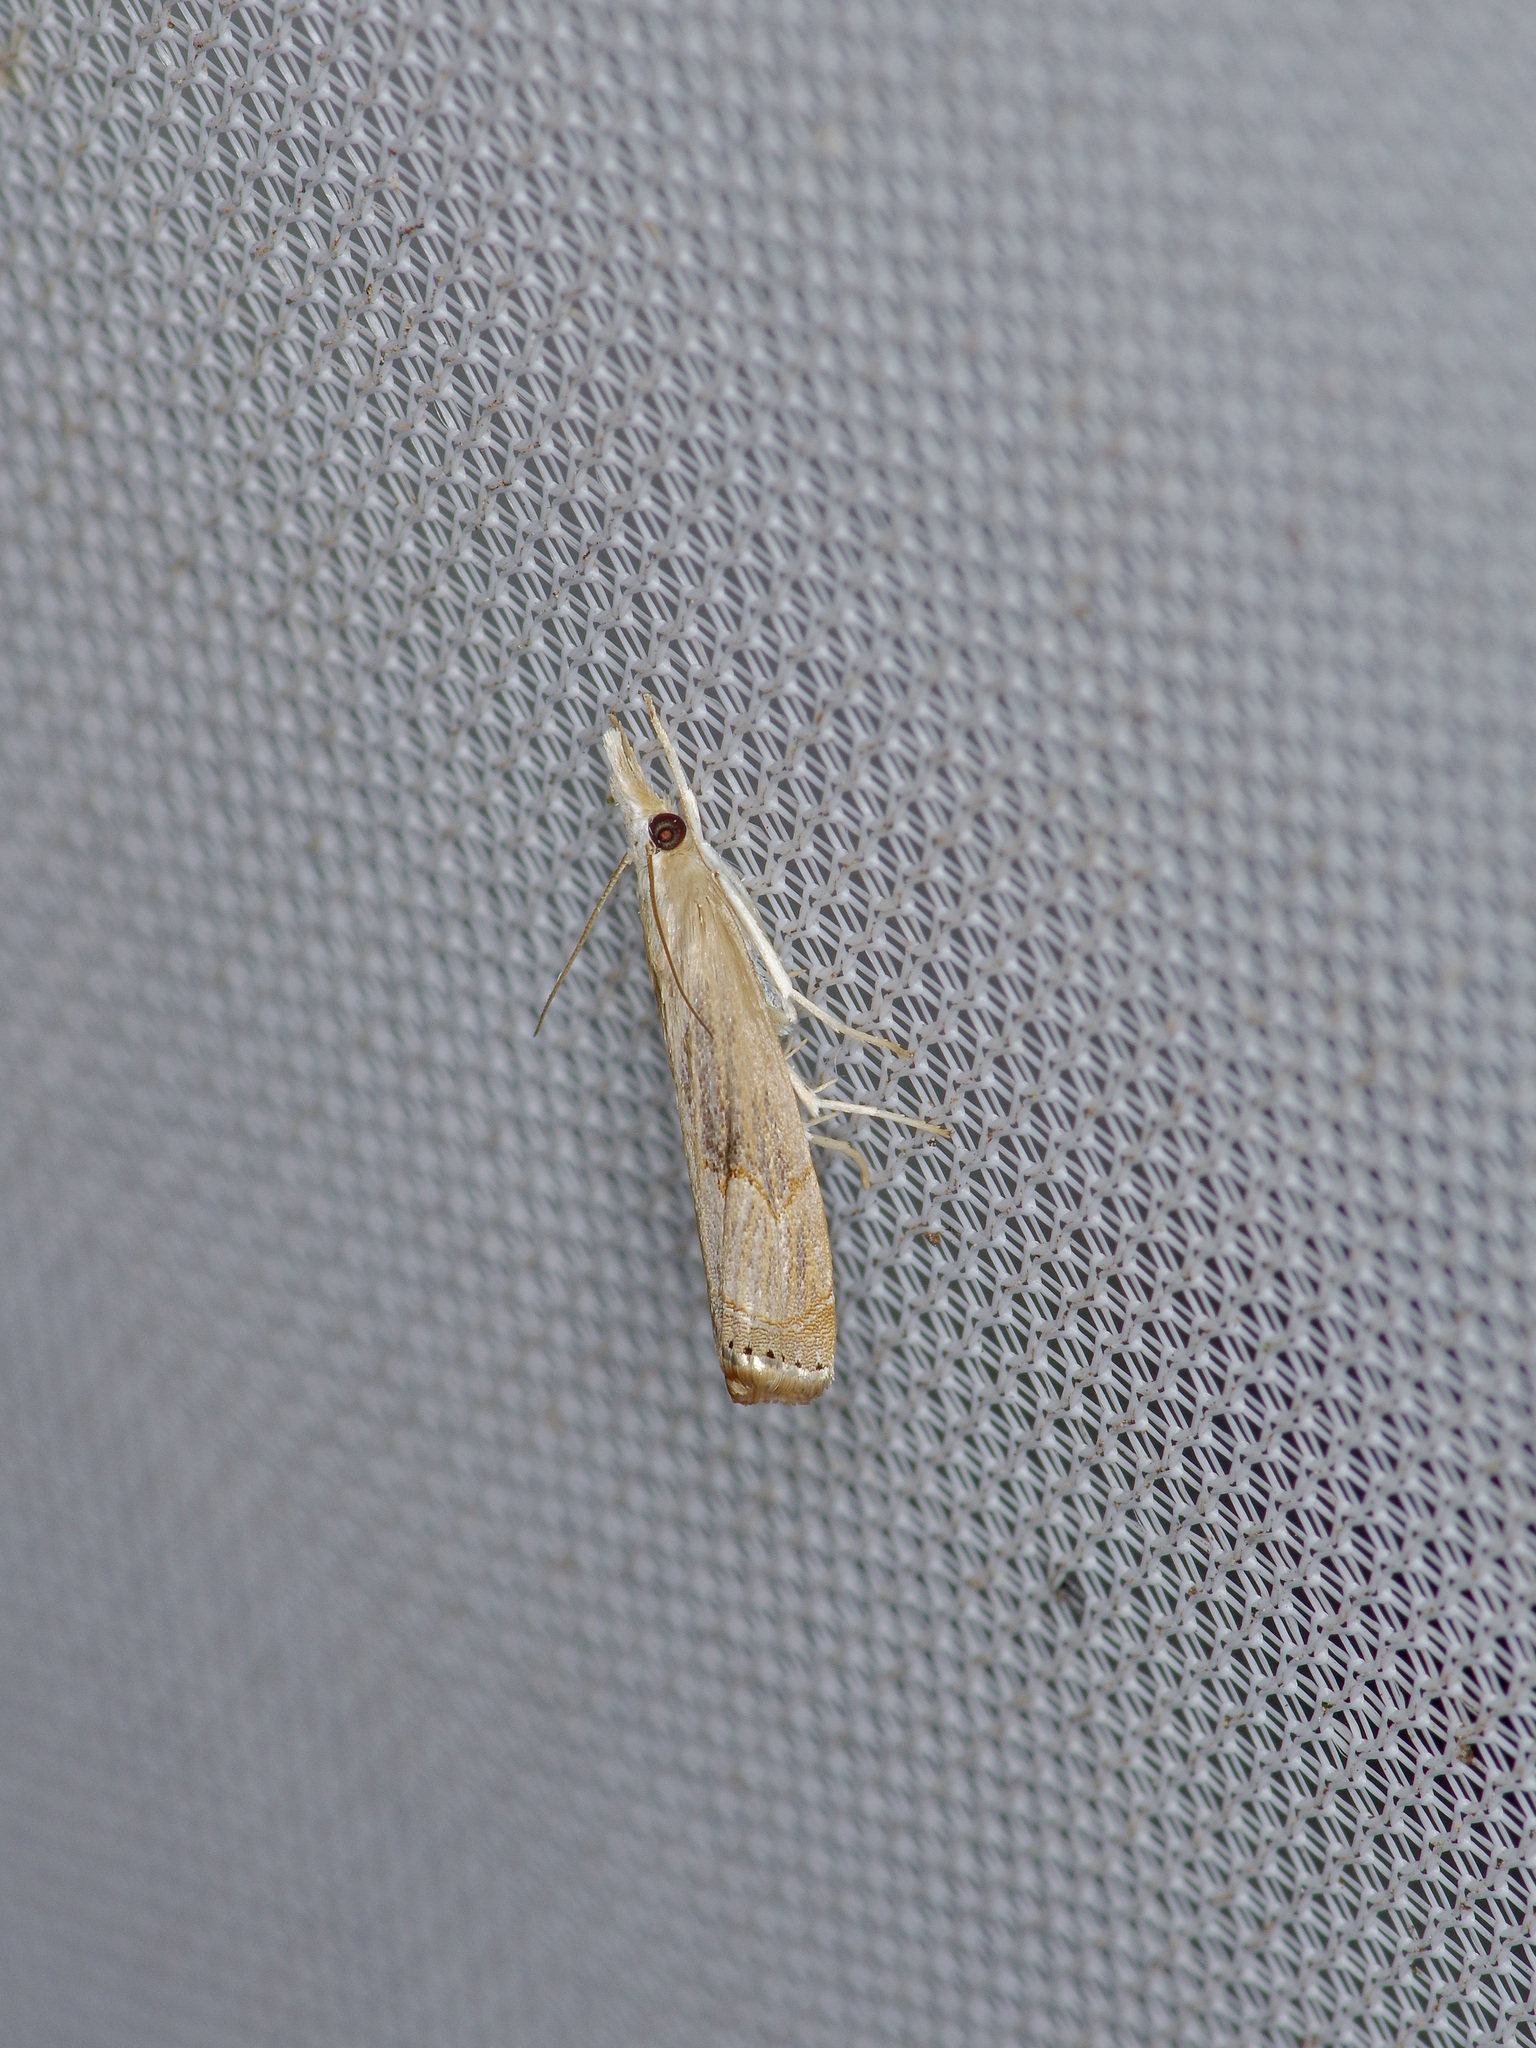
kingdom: Animalia
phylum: Arthropoda
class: Insecta
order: Lepidoptera
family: Crambidae
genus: Parapediasia
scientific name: Parapediasia teterellus
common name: Bluegrass webworm moth
